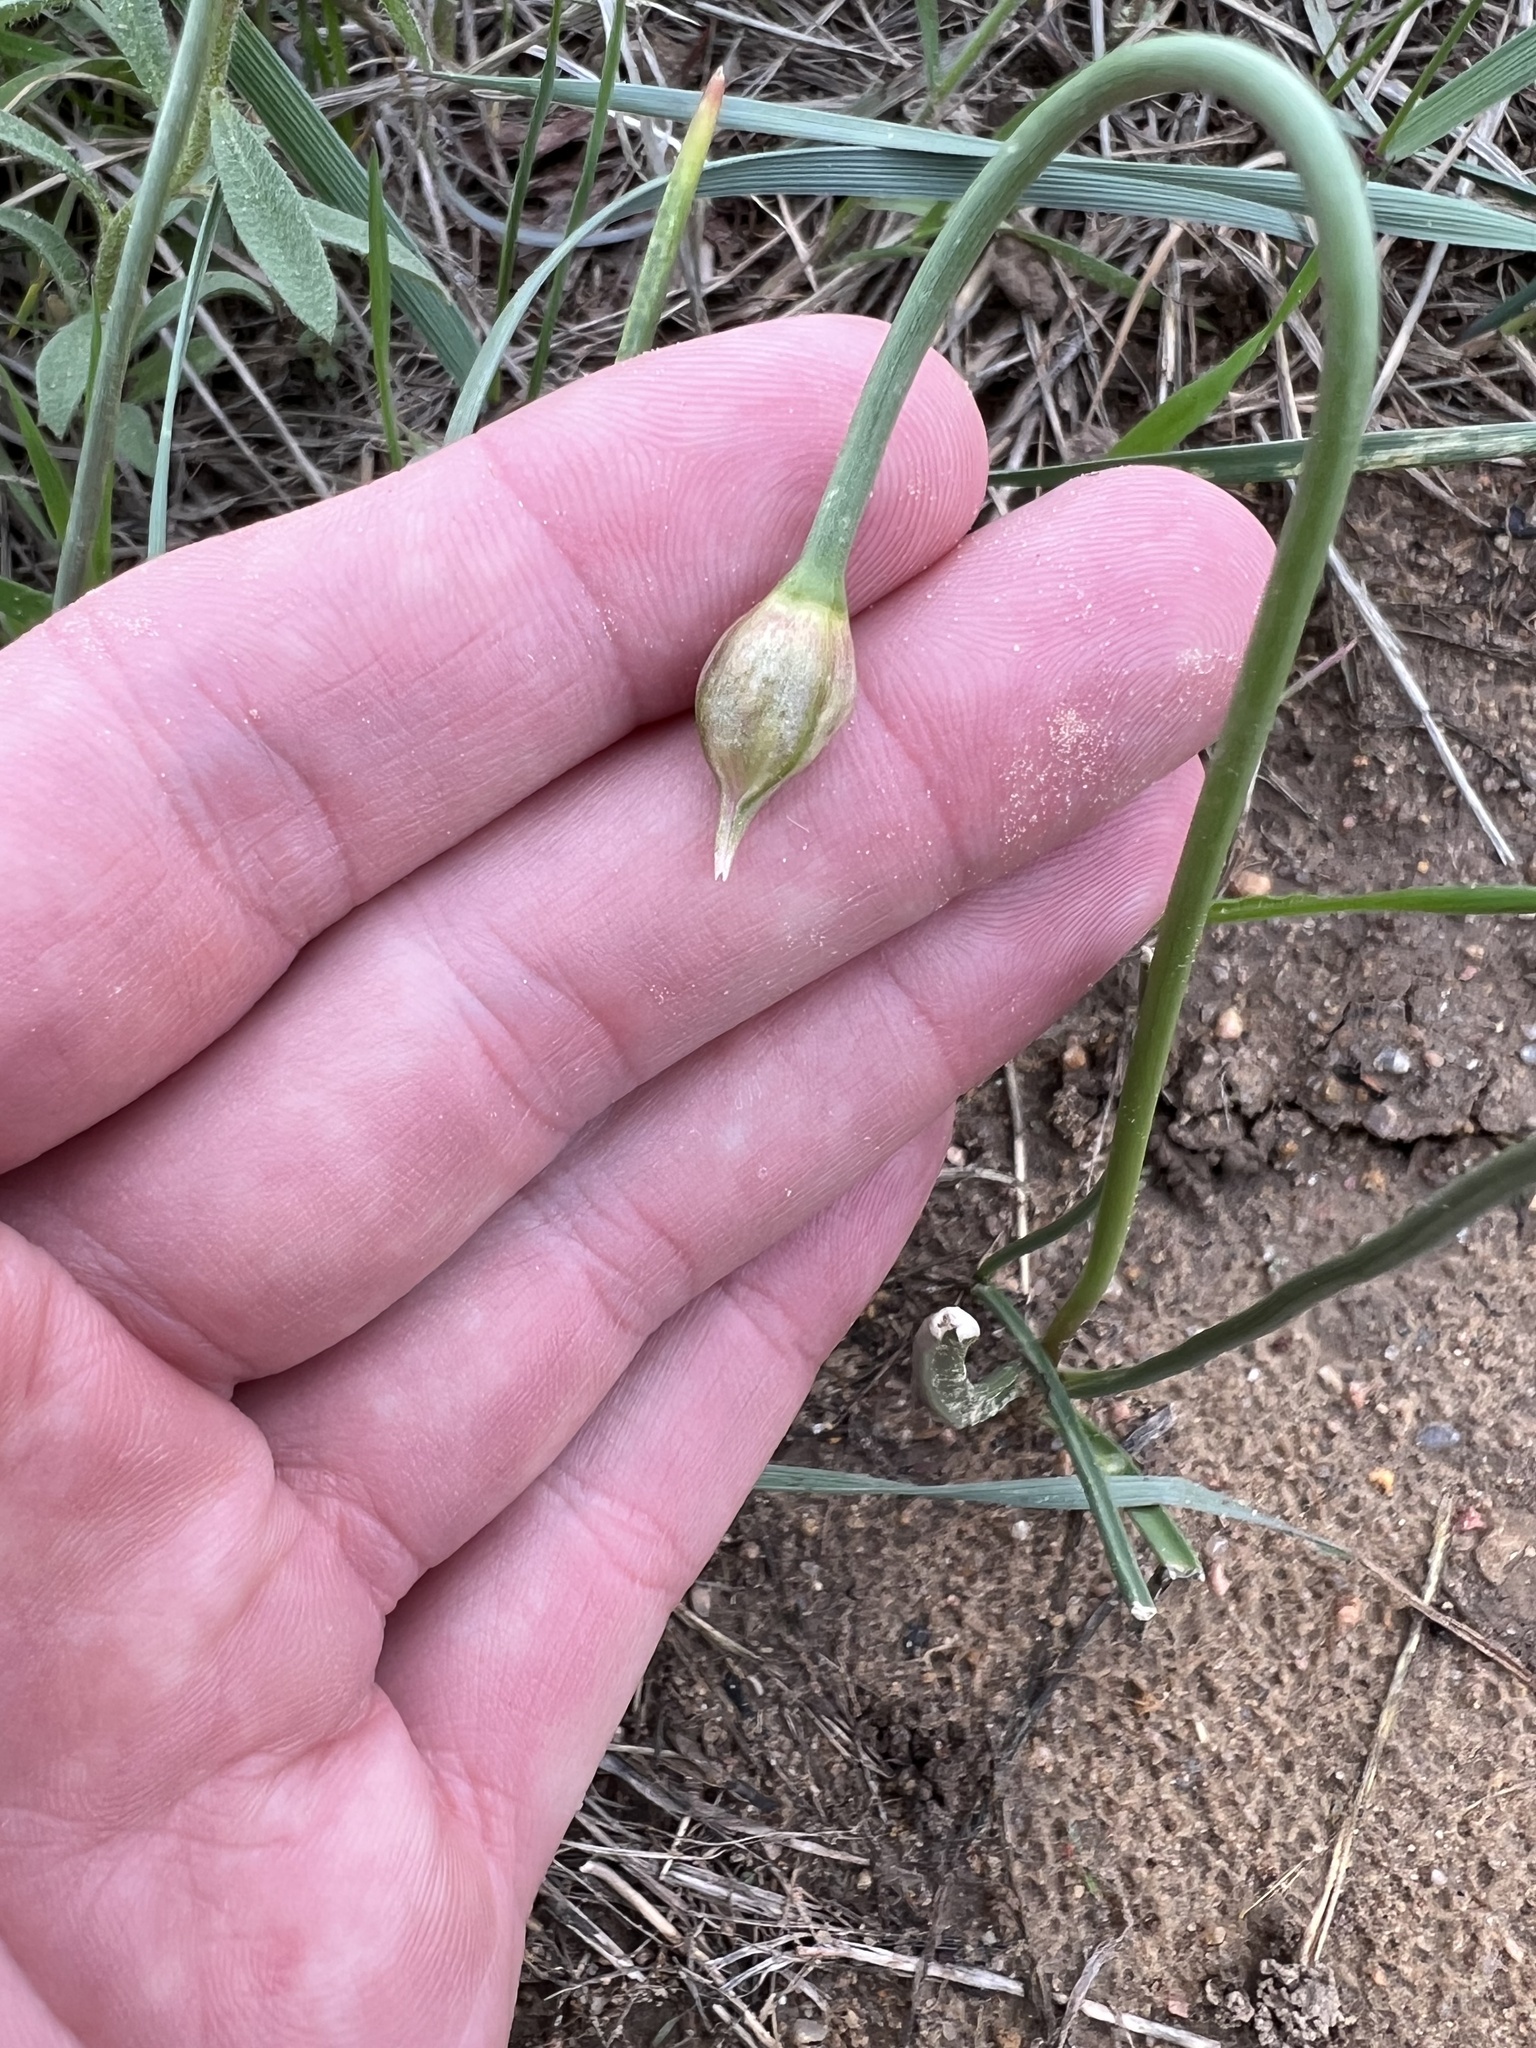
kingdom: Plantae
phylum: Tracheophyta
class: Liliopsida
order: Asparagales
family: Amaryllidaceae
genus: Allium
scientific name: Allium textile
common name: Prairie onion
